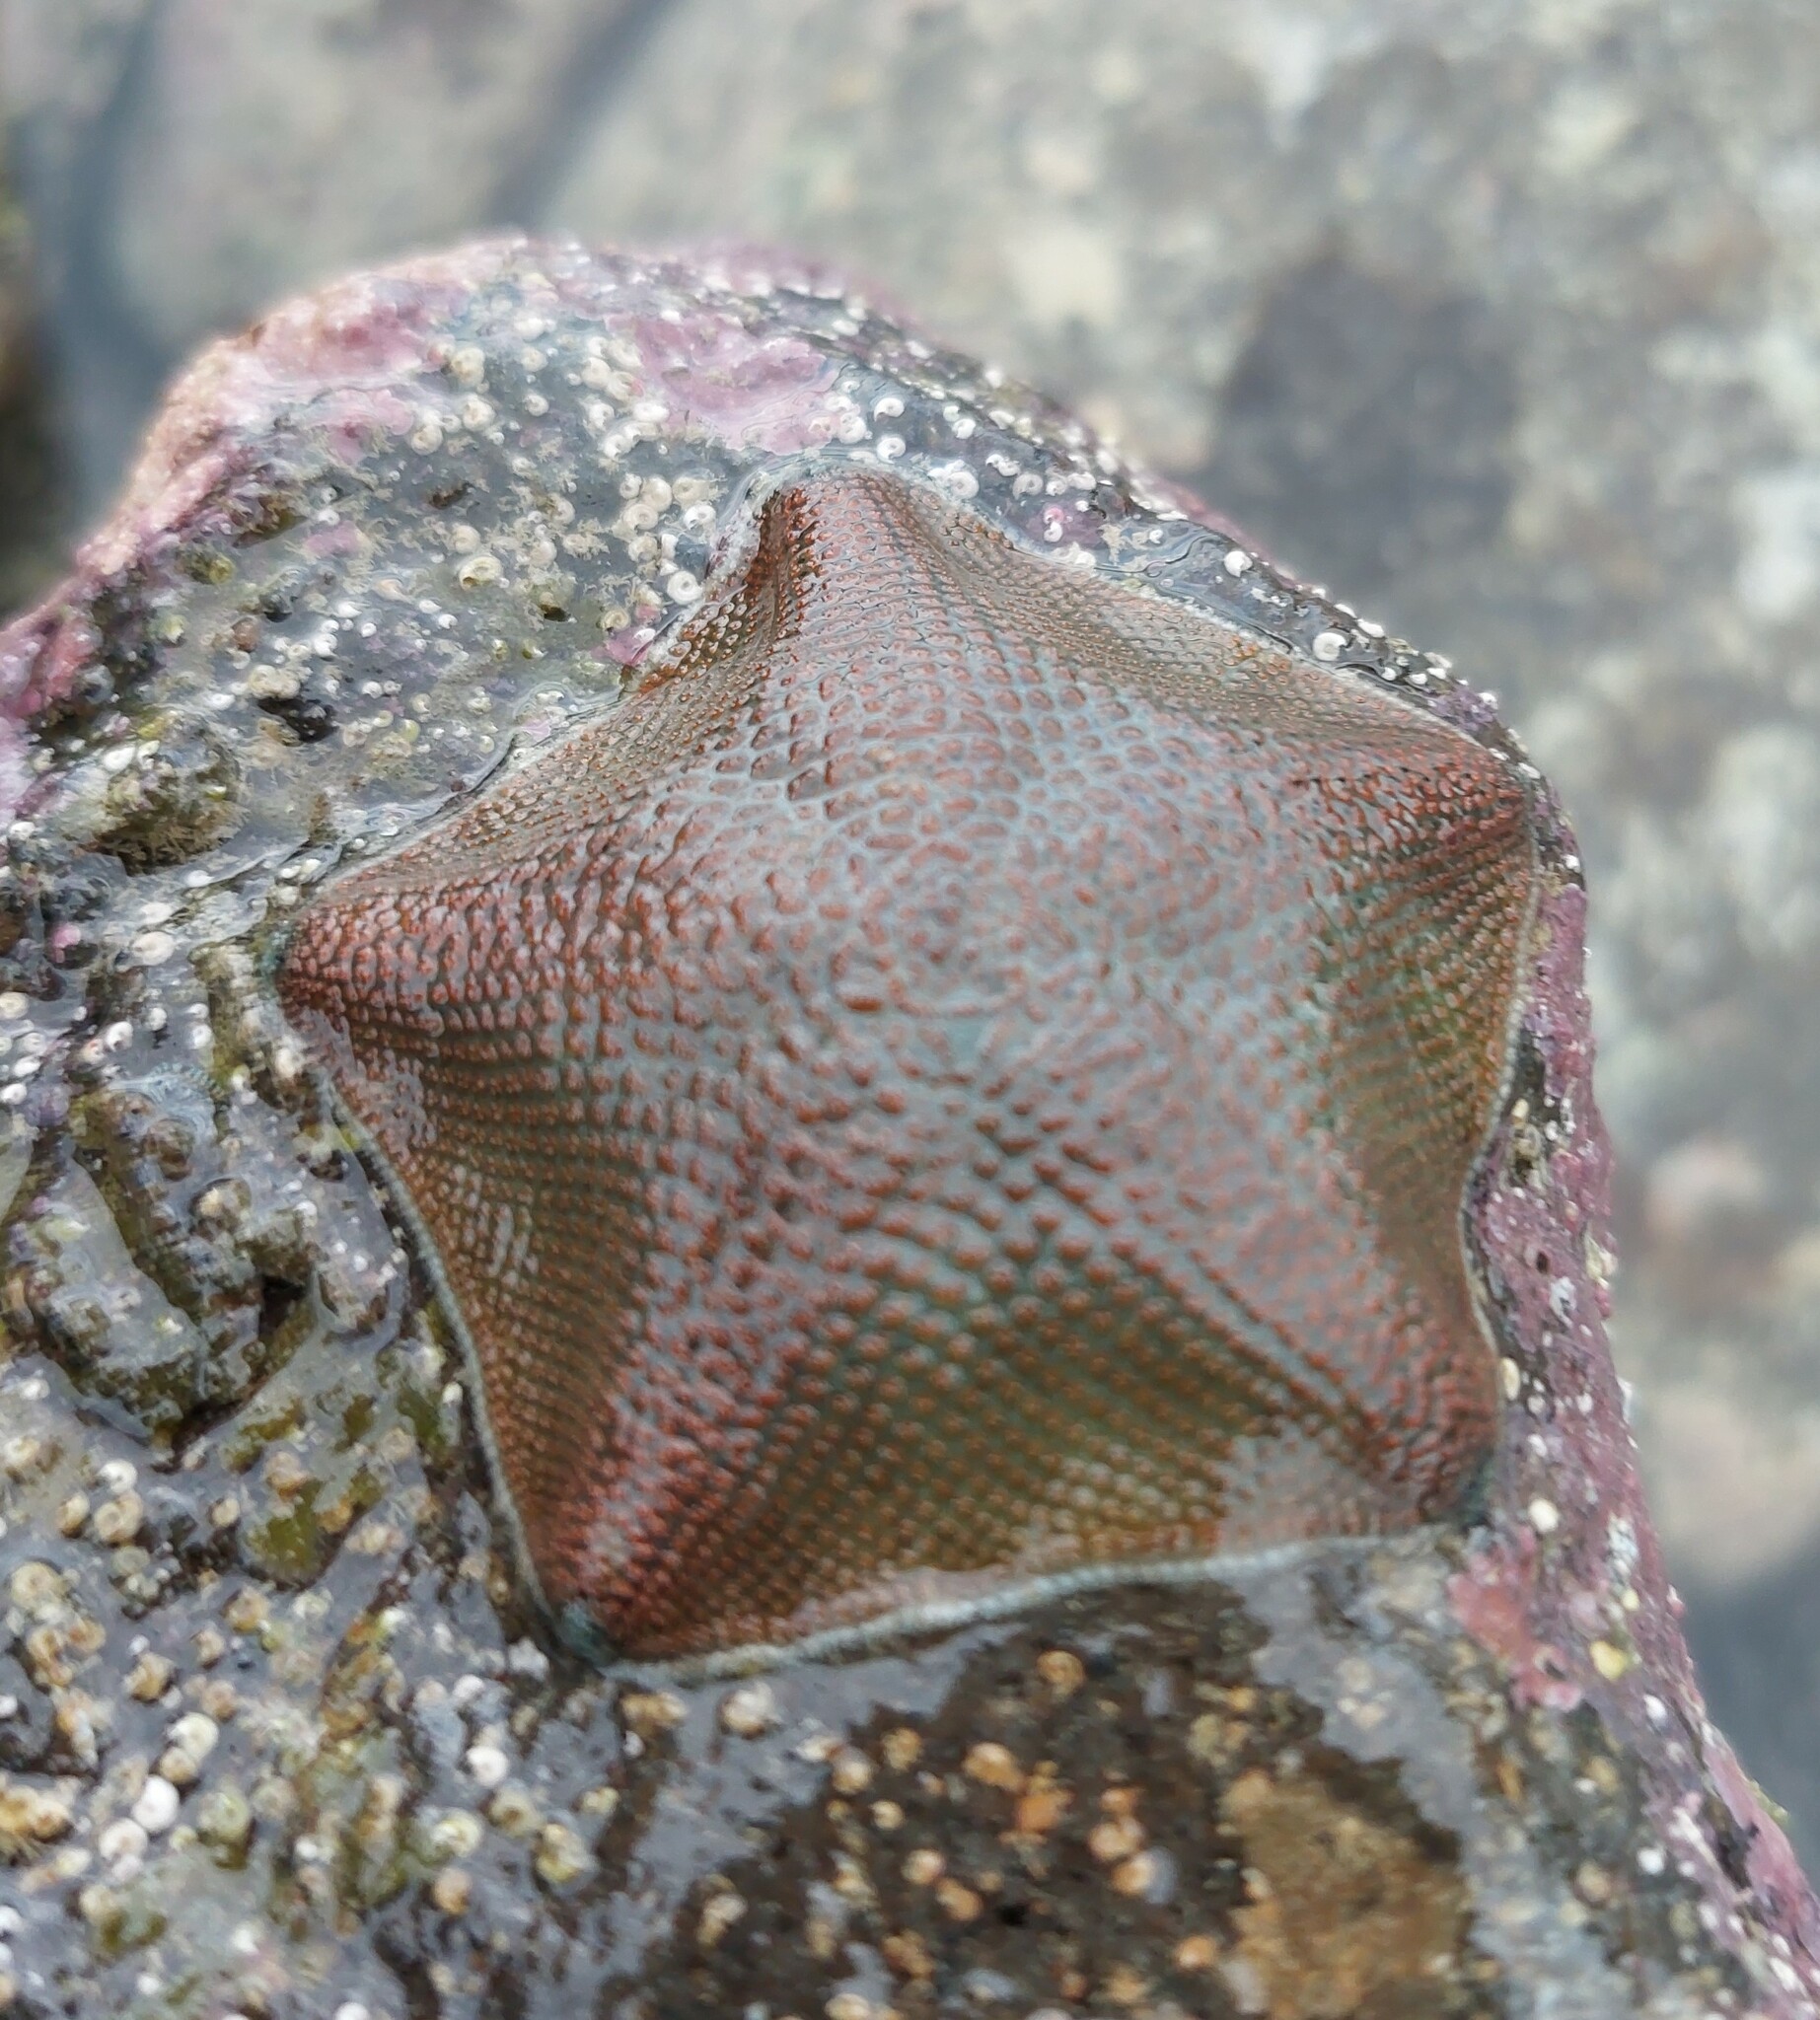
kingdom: Animalia
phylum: Echinodermata
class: Asteroidea
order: Valvatida
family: Asterinidae
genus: Patiriella
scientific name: Patiriella regularis
